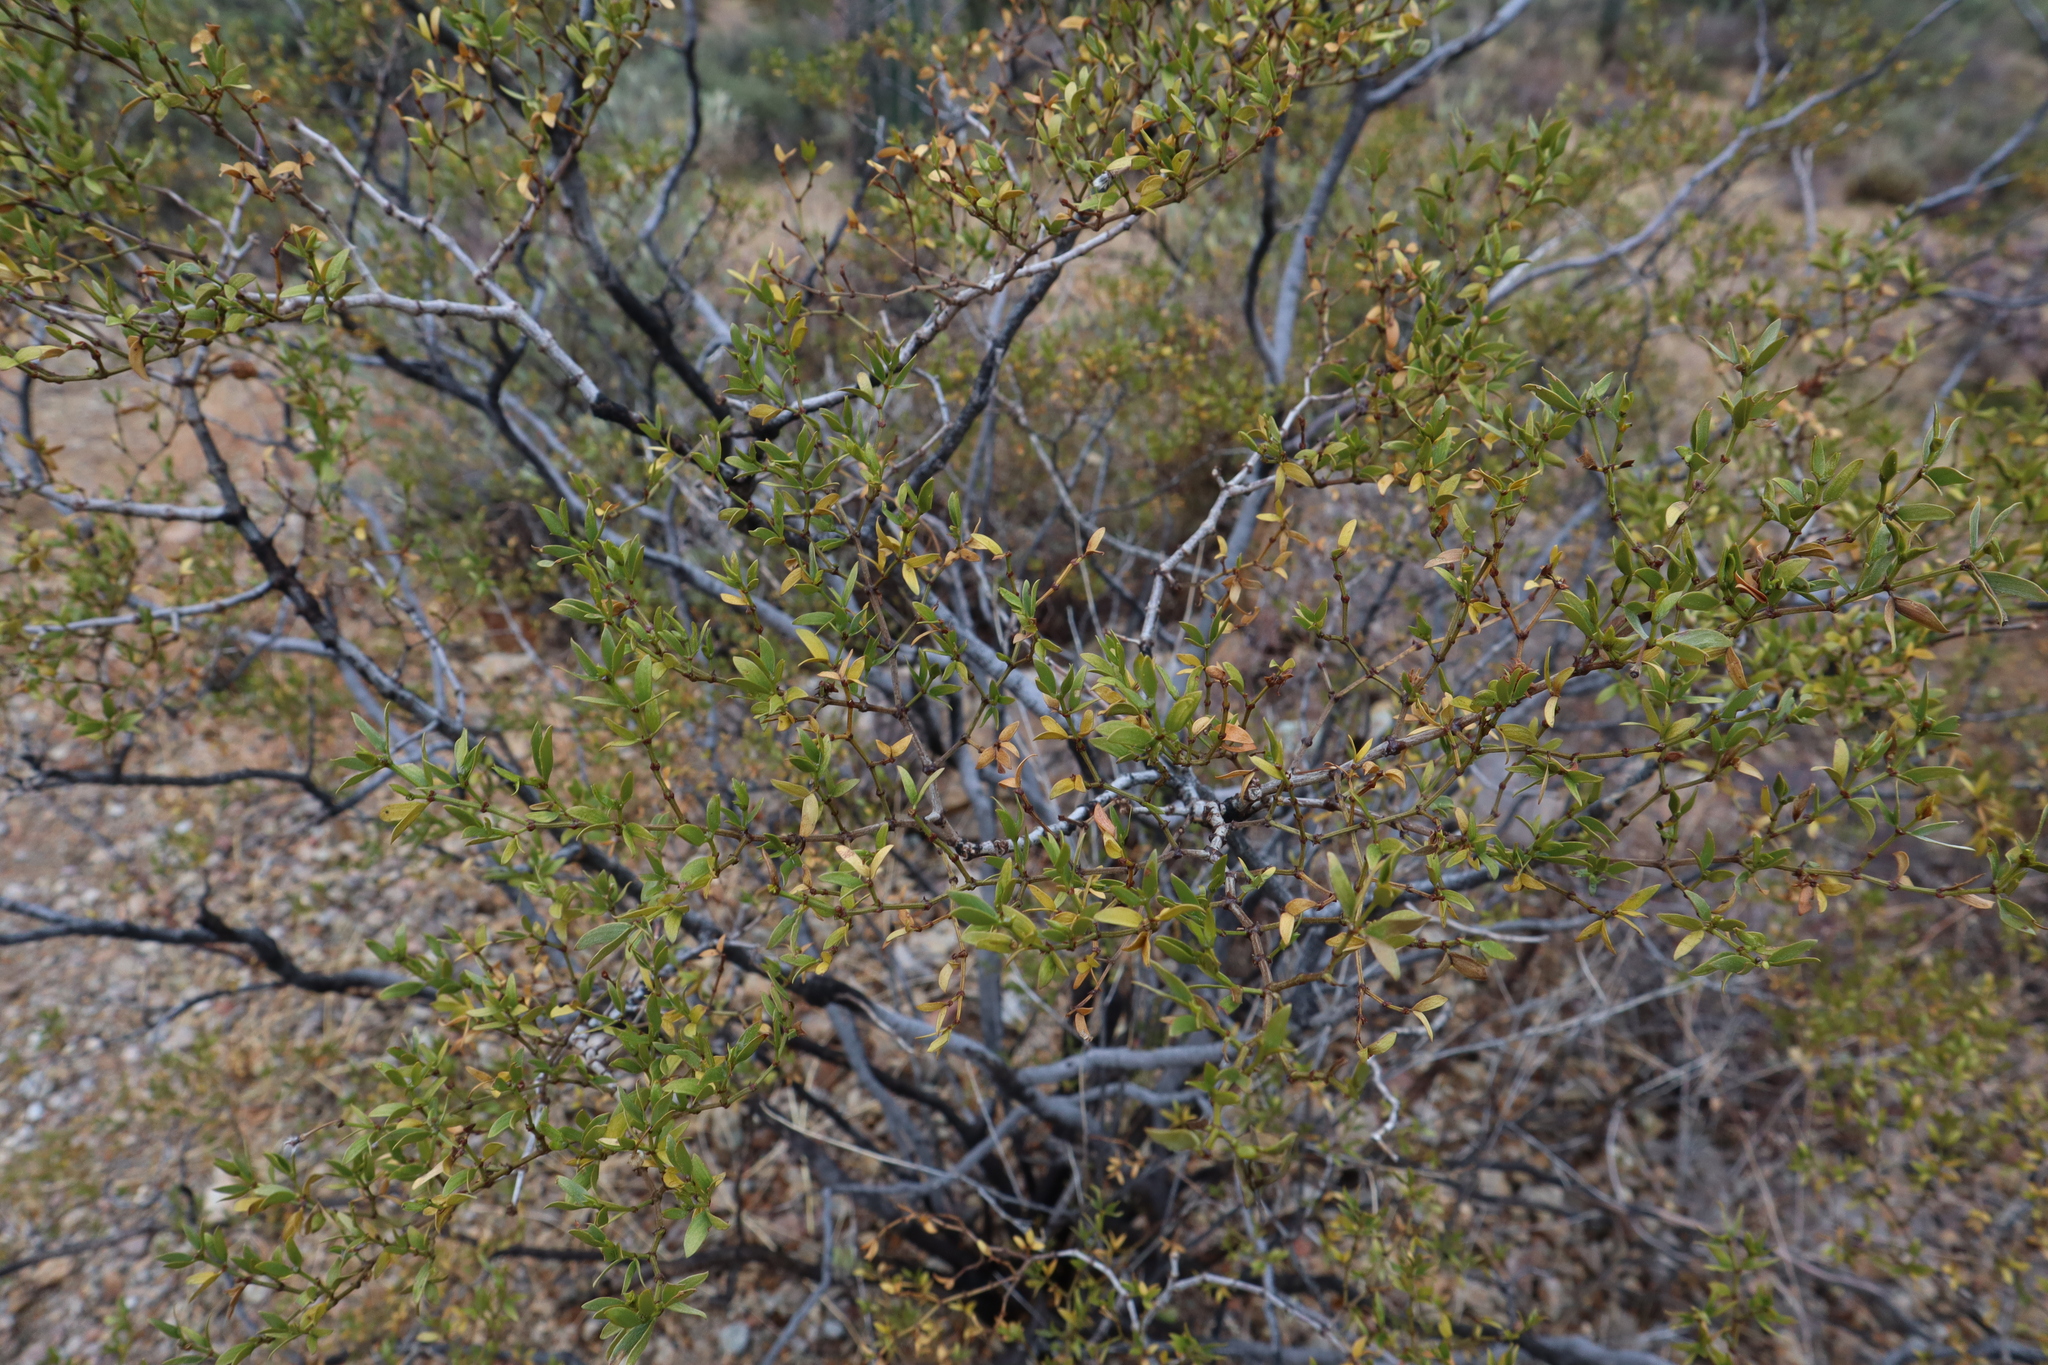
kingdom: Plantae
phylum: Tracheophyta
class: Magnoliopsida
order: Zygophyllales
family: Zygophyllaceae
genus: Larrea
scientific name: Larrea tridentata
